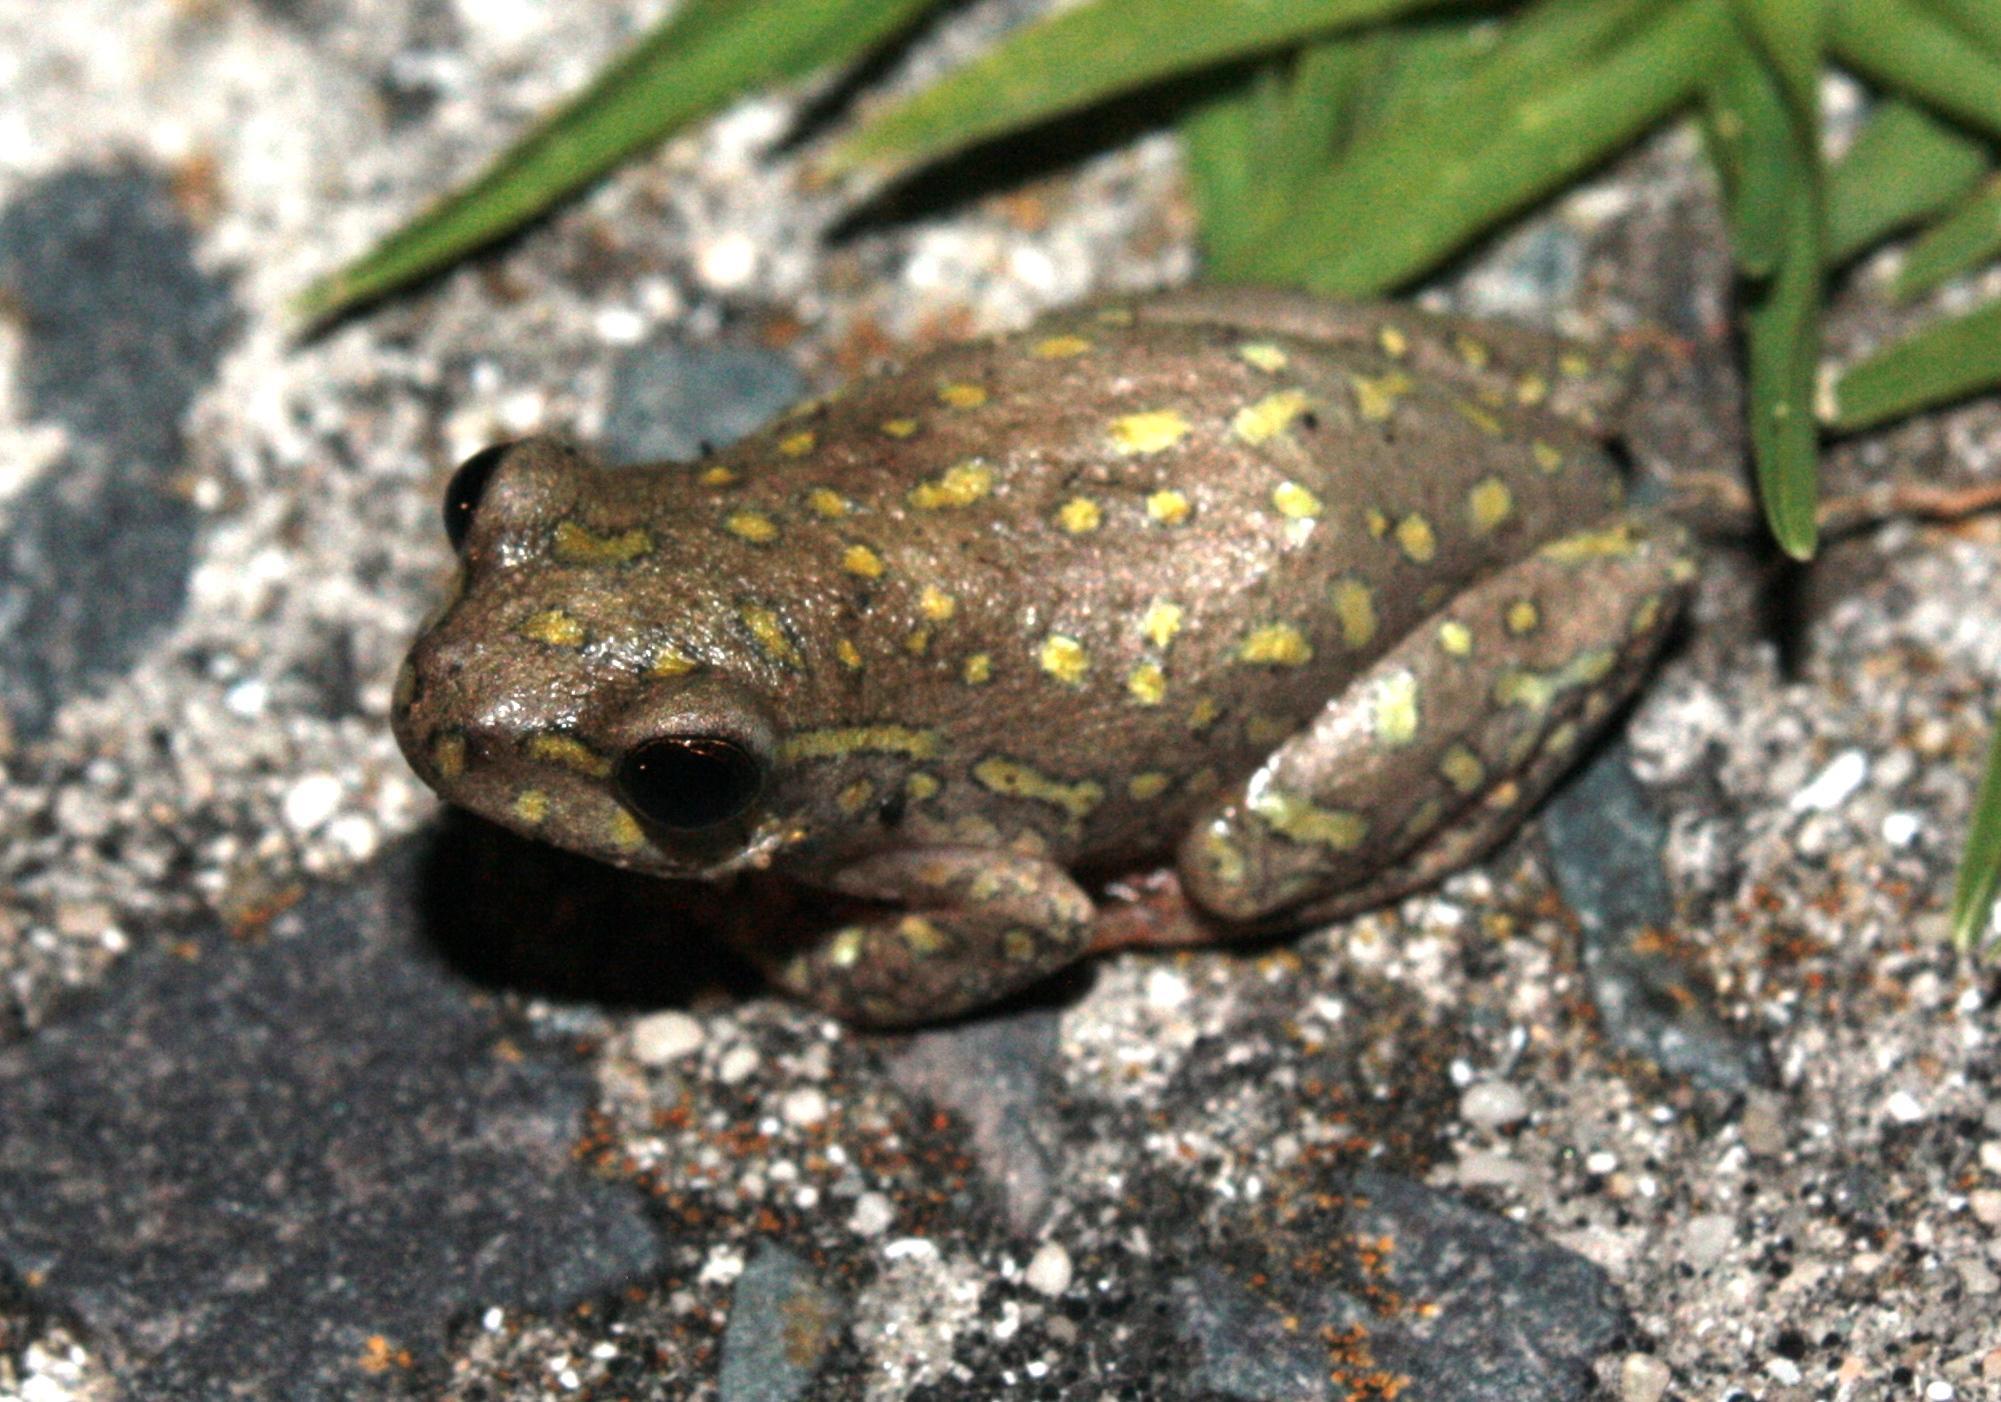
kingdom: Animalia
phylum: Chordata
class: Amphibia
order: Anura
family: Hyperoliidae
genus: Hyperolius
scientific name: Hyperolius marmoratus
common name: Painted reed frog
